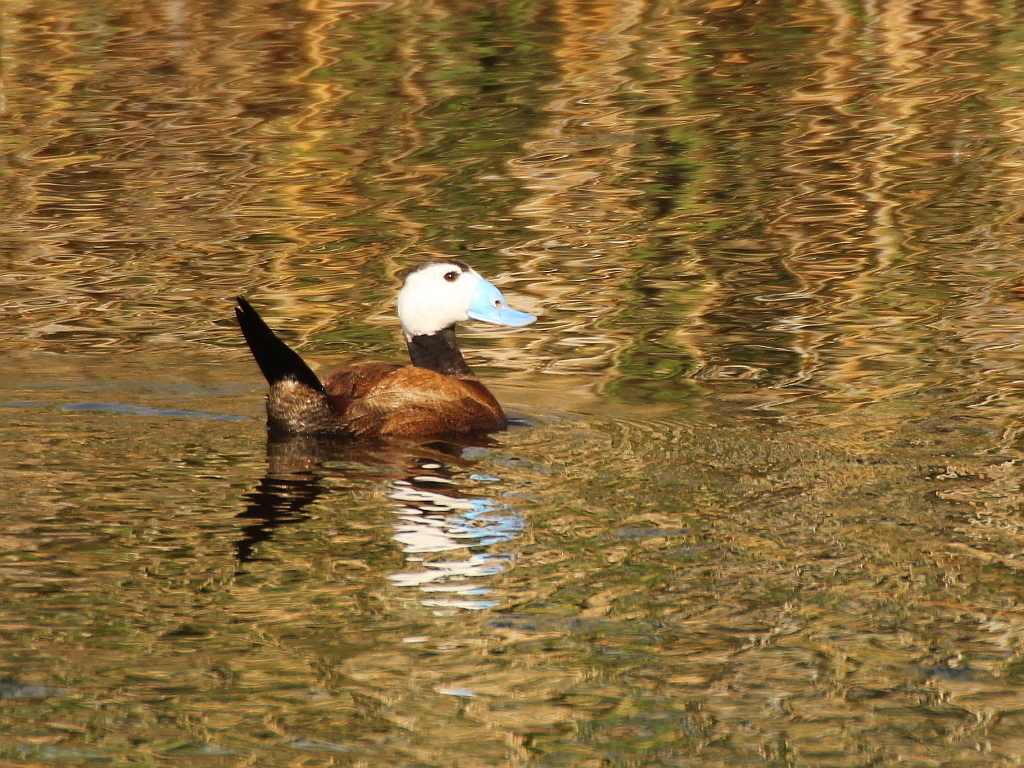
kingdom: Animalia
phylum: Chordata
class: Aves
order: Anseriformes
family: Anatidae
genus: Oxyura
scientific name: Oxyura leucocephala
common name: White-headed duck
